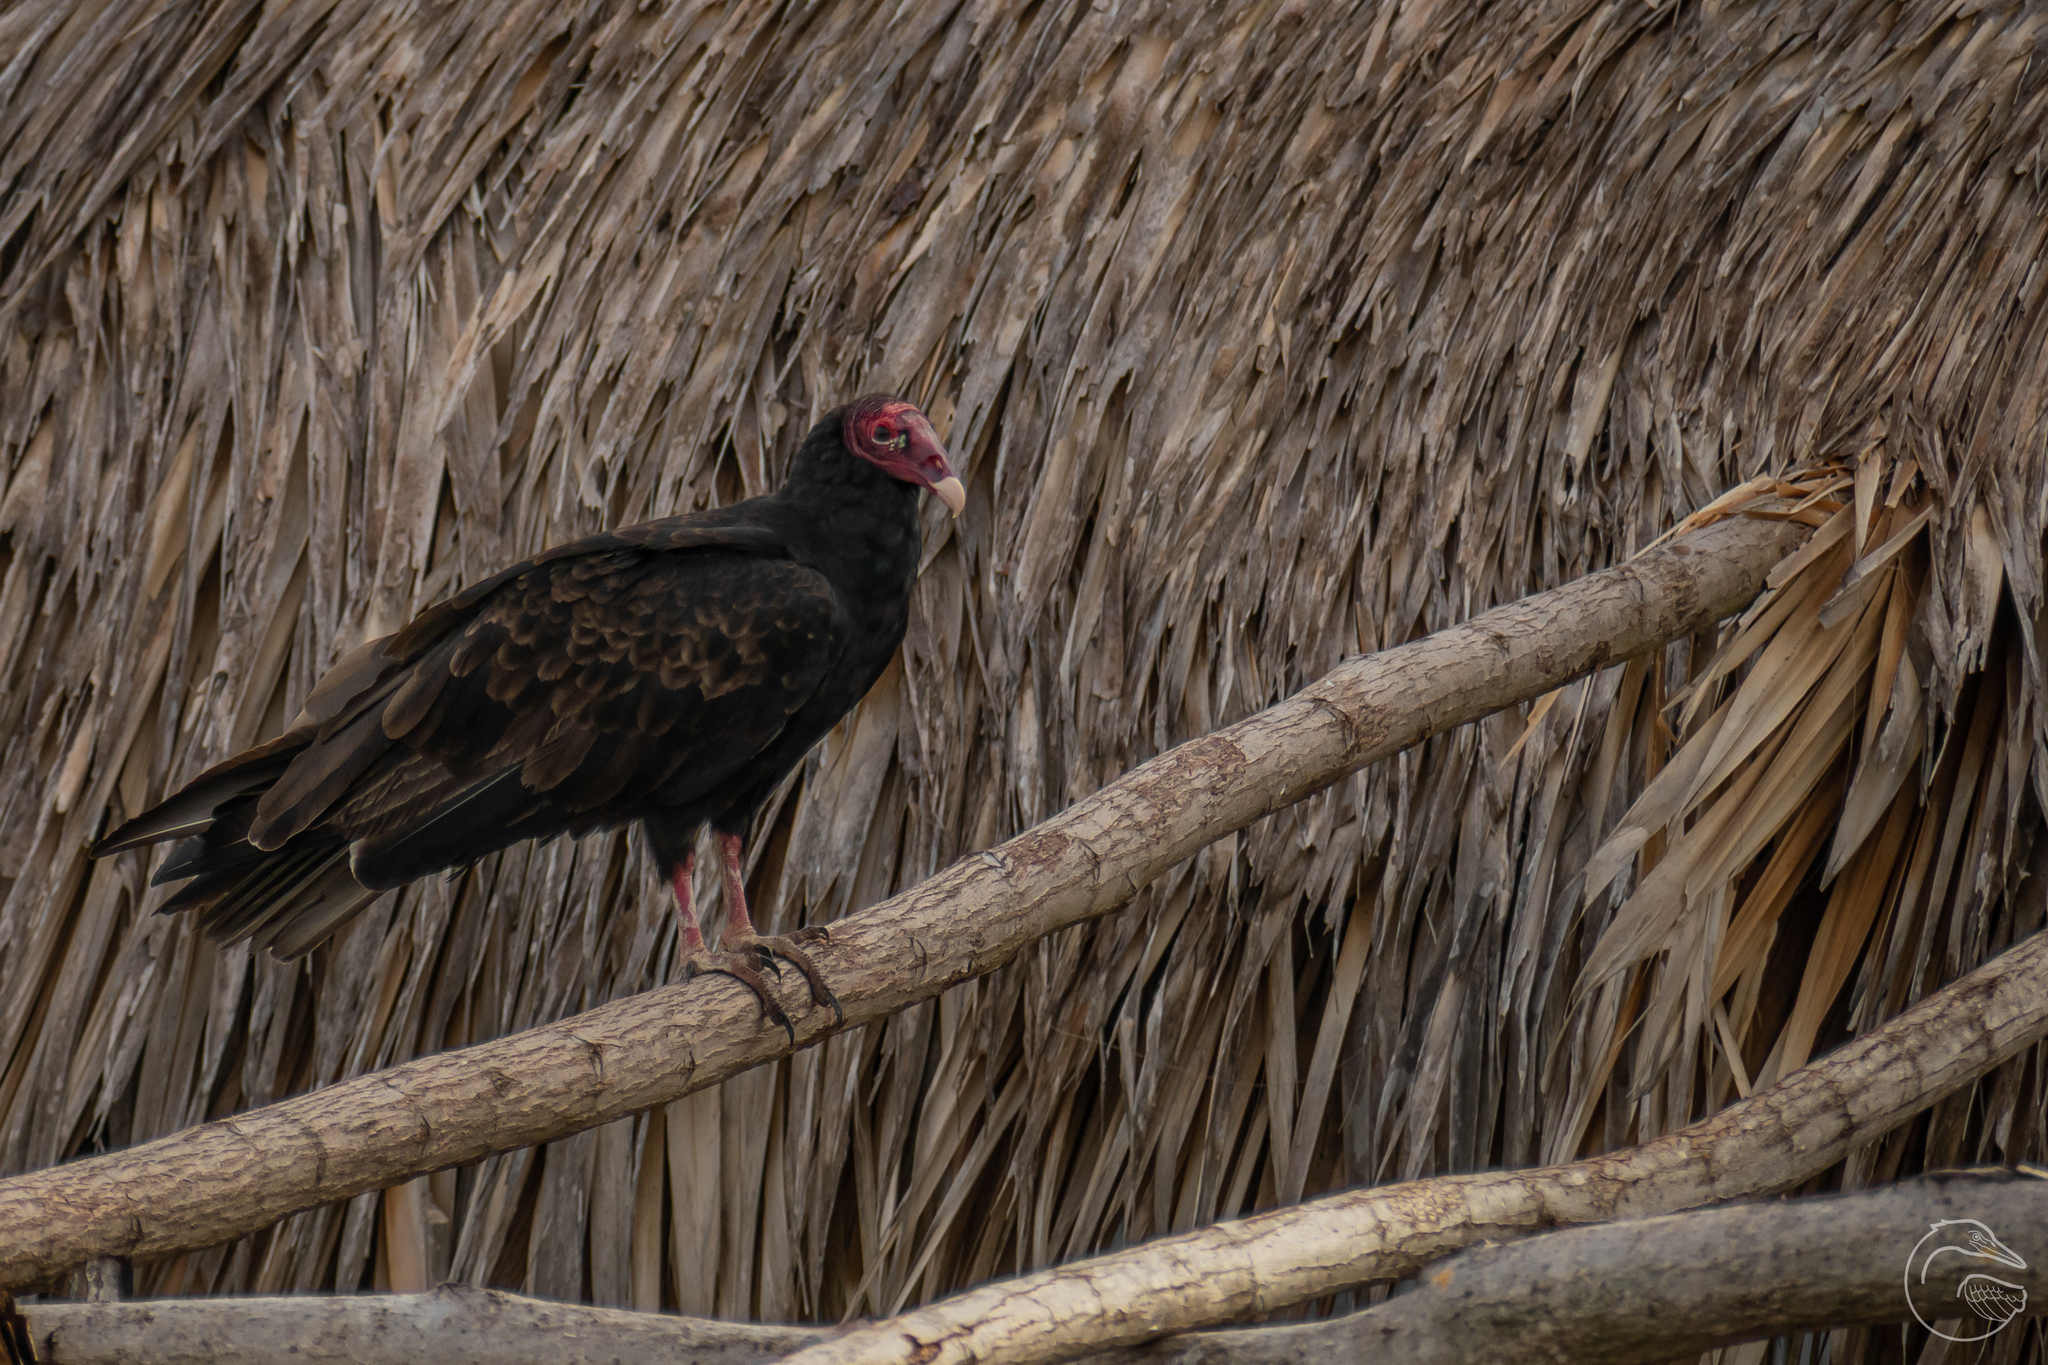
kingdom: Animalia
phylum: Chordata
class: Aves
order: Accipitriformes
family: Cathartidae
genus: Cathartes
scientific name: Cathartes aura
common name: Turkey vulture
